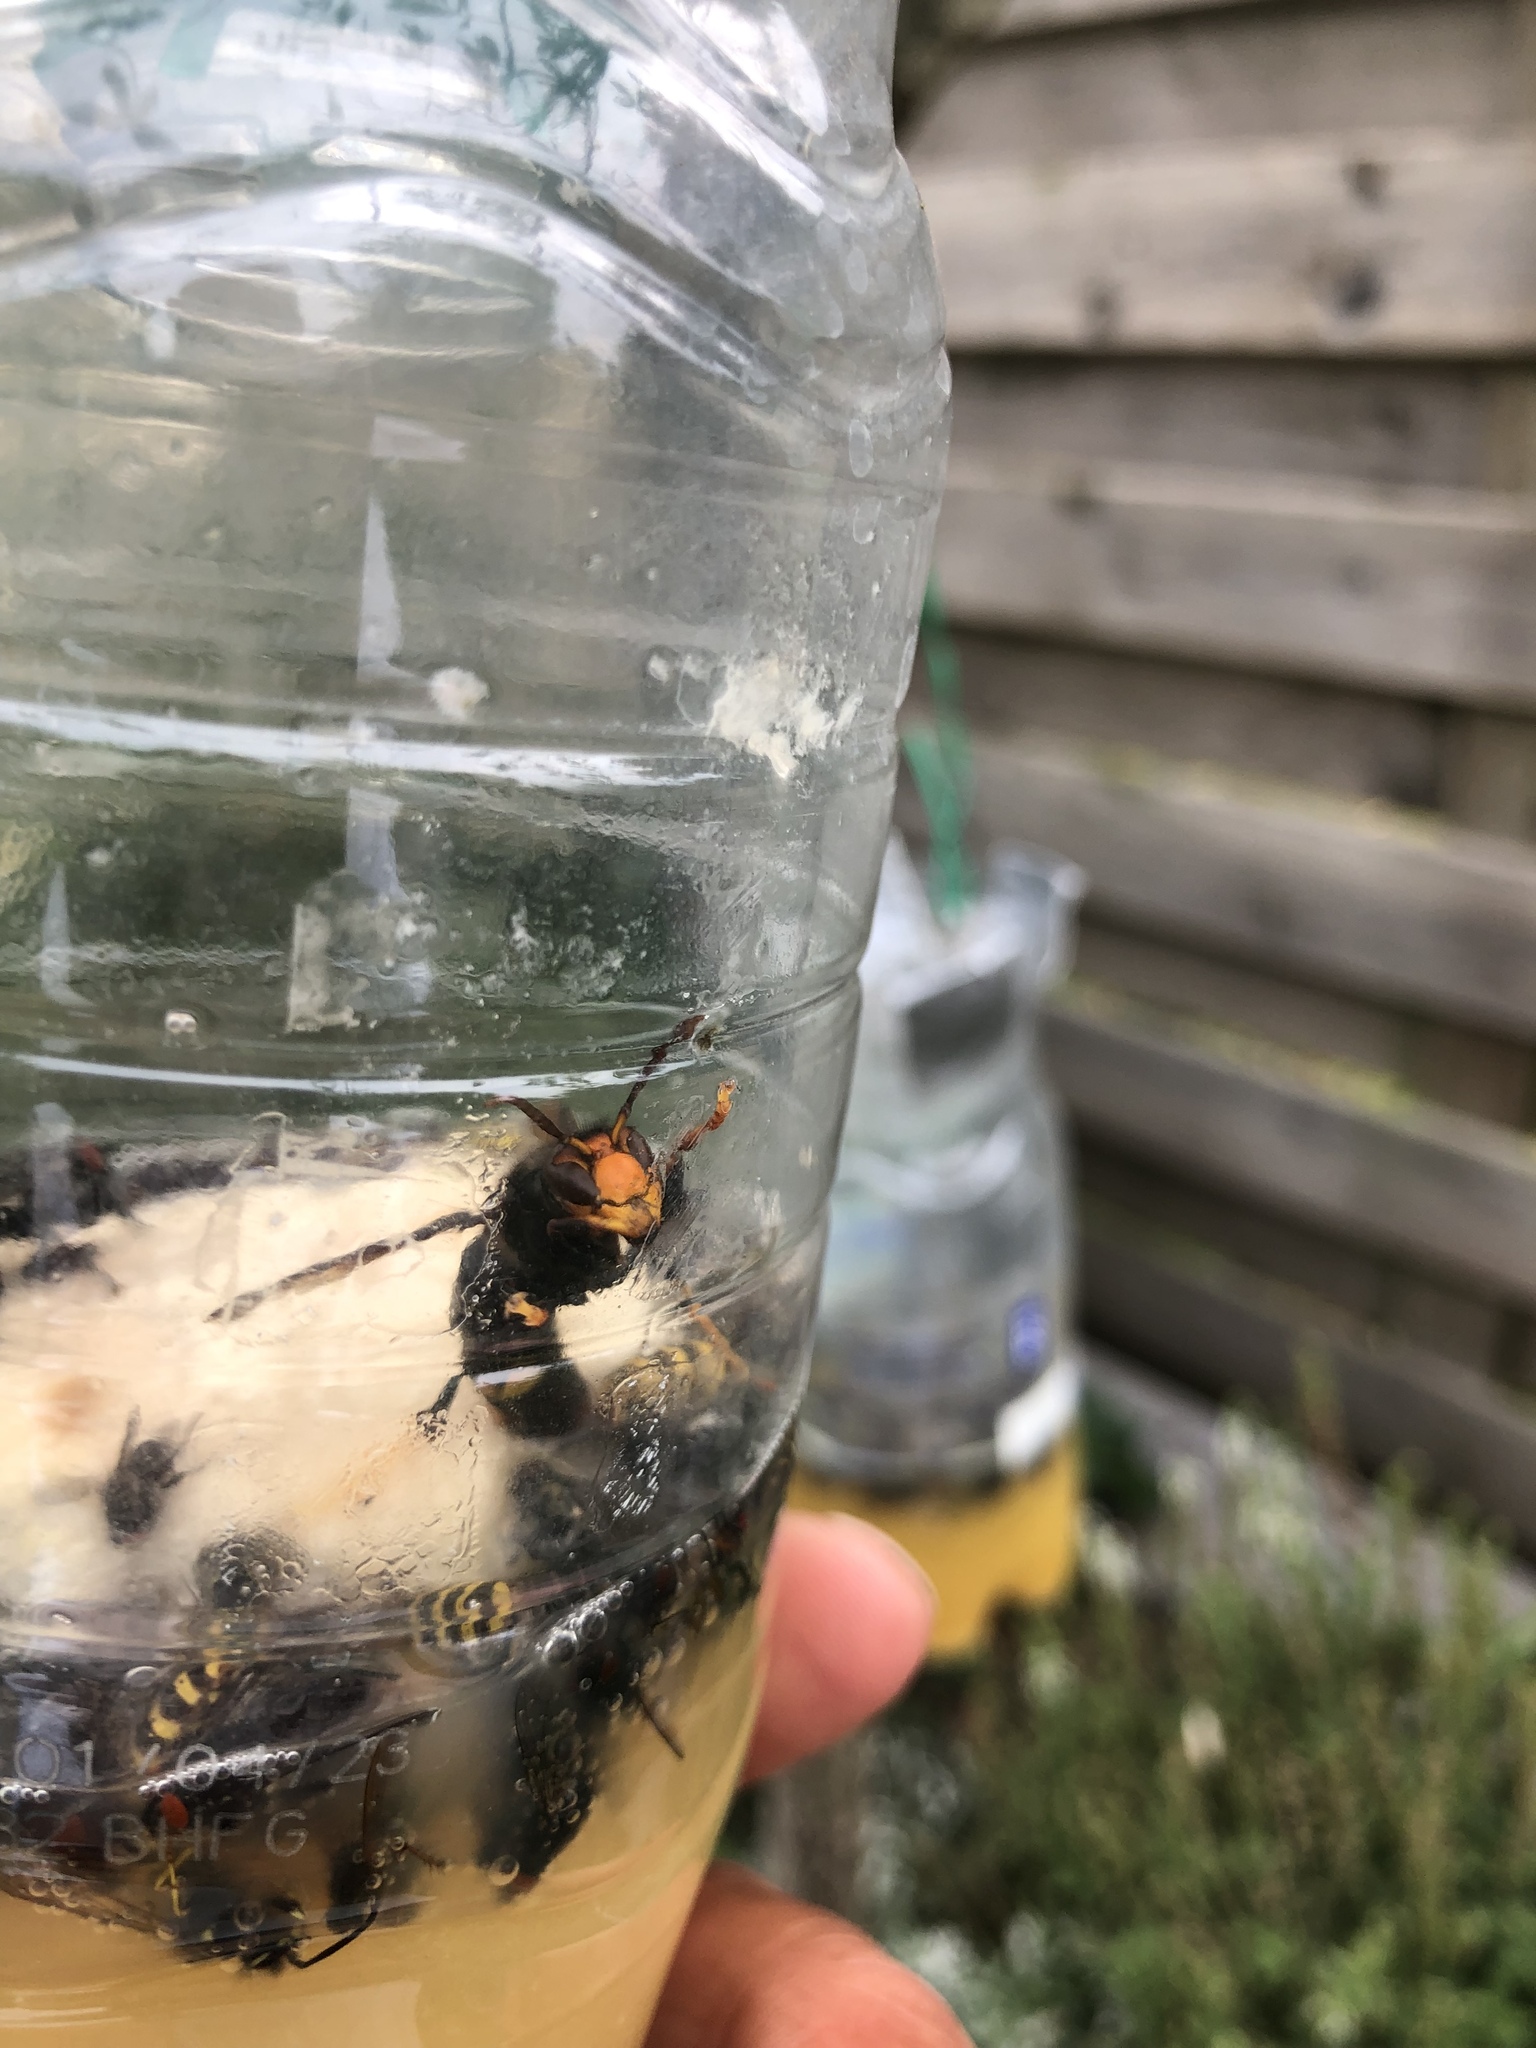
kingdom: Animalia
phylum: Arthropoda
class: Insecta
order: Hymenoptera
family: Vespidae
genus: Vespa
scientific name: Vespa velutina
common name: Asian hornet
